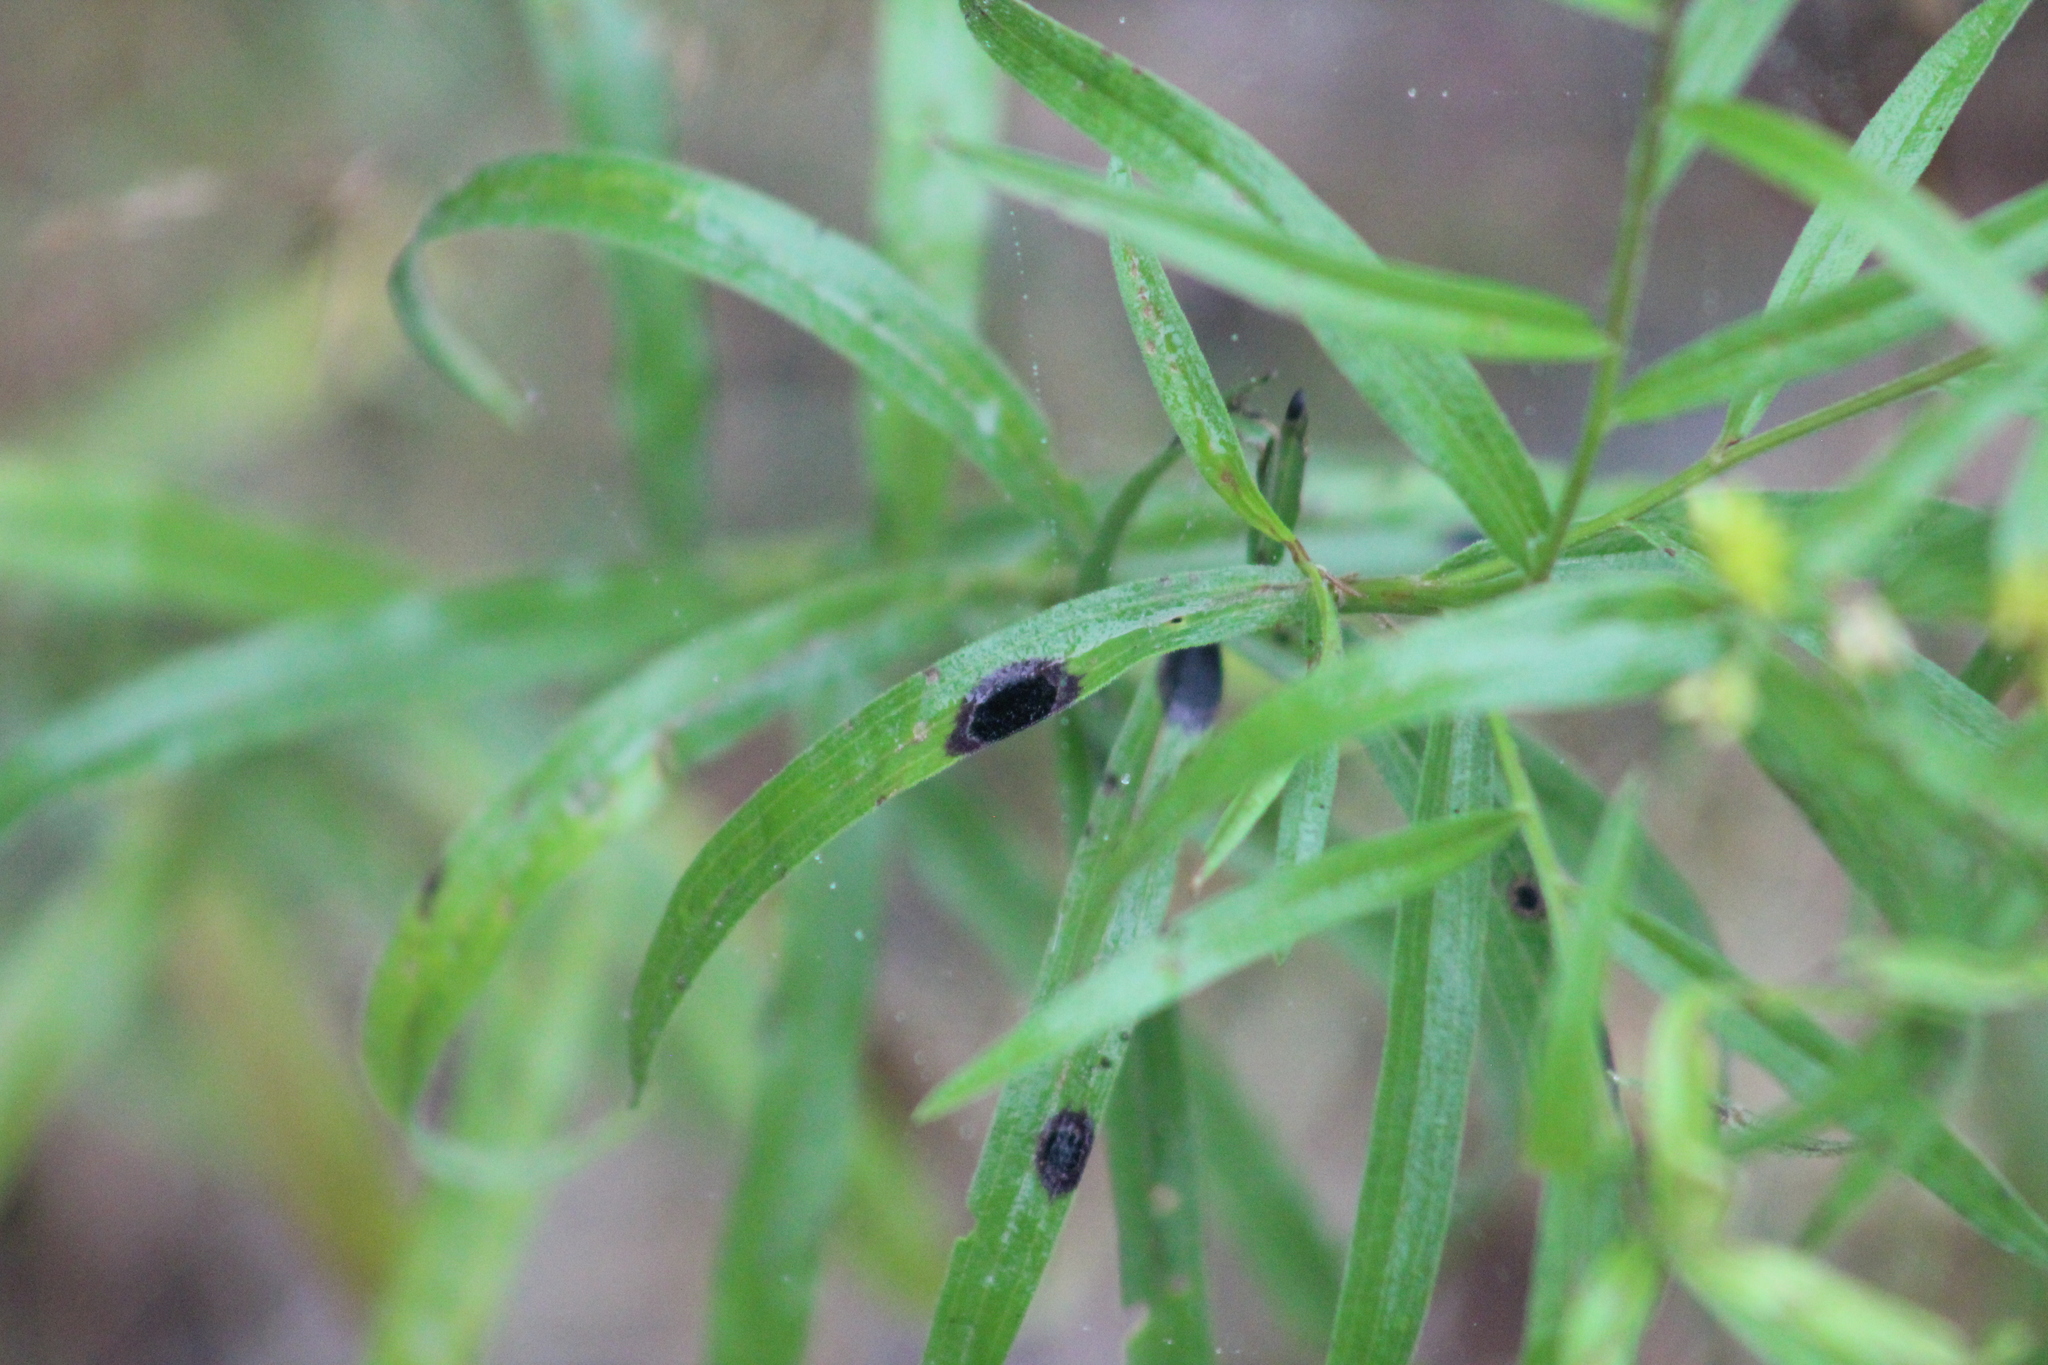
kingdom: Animalia
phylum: Arthropoda
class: Insecta
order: Diptera
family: Cecidomyiidae
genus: Asteromyia
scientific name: Asteromyia euthamiae
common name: Euthamia leaf gall midge
